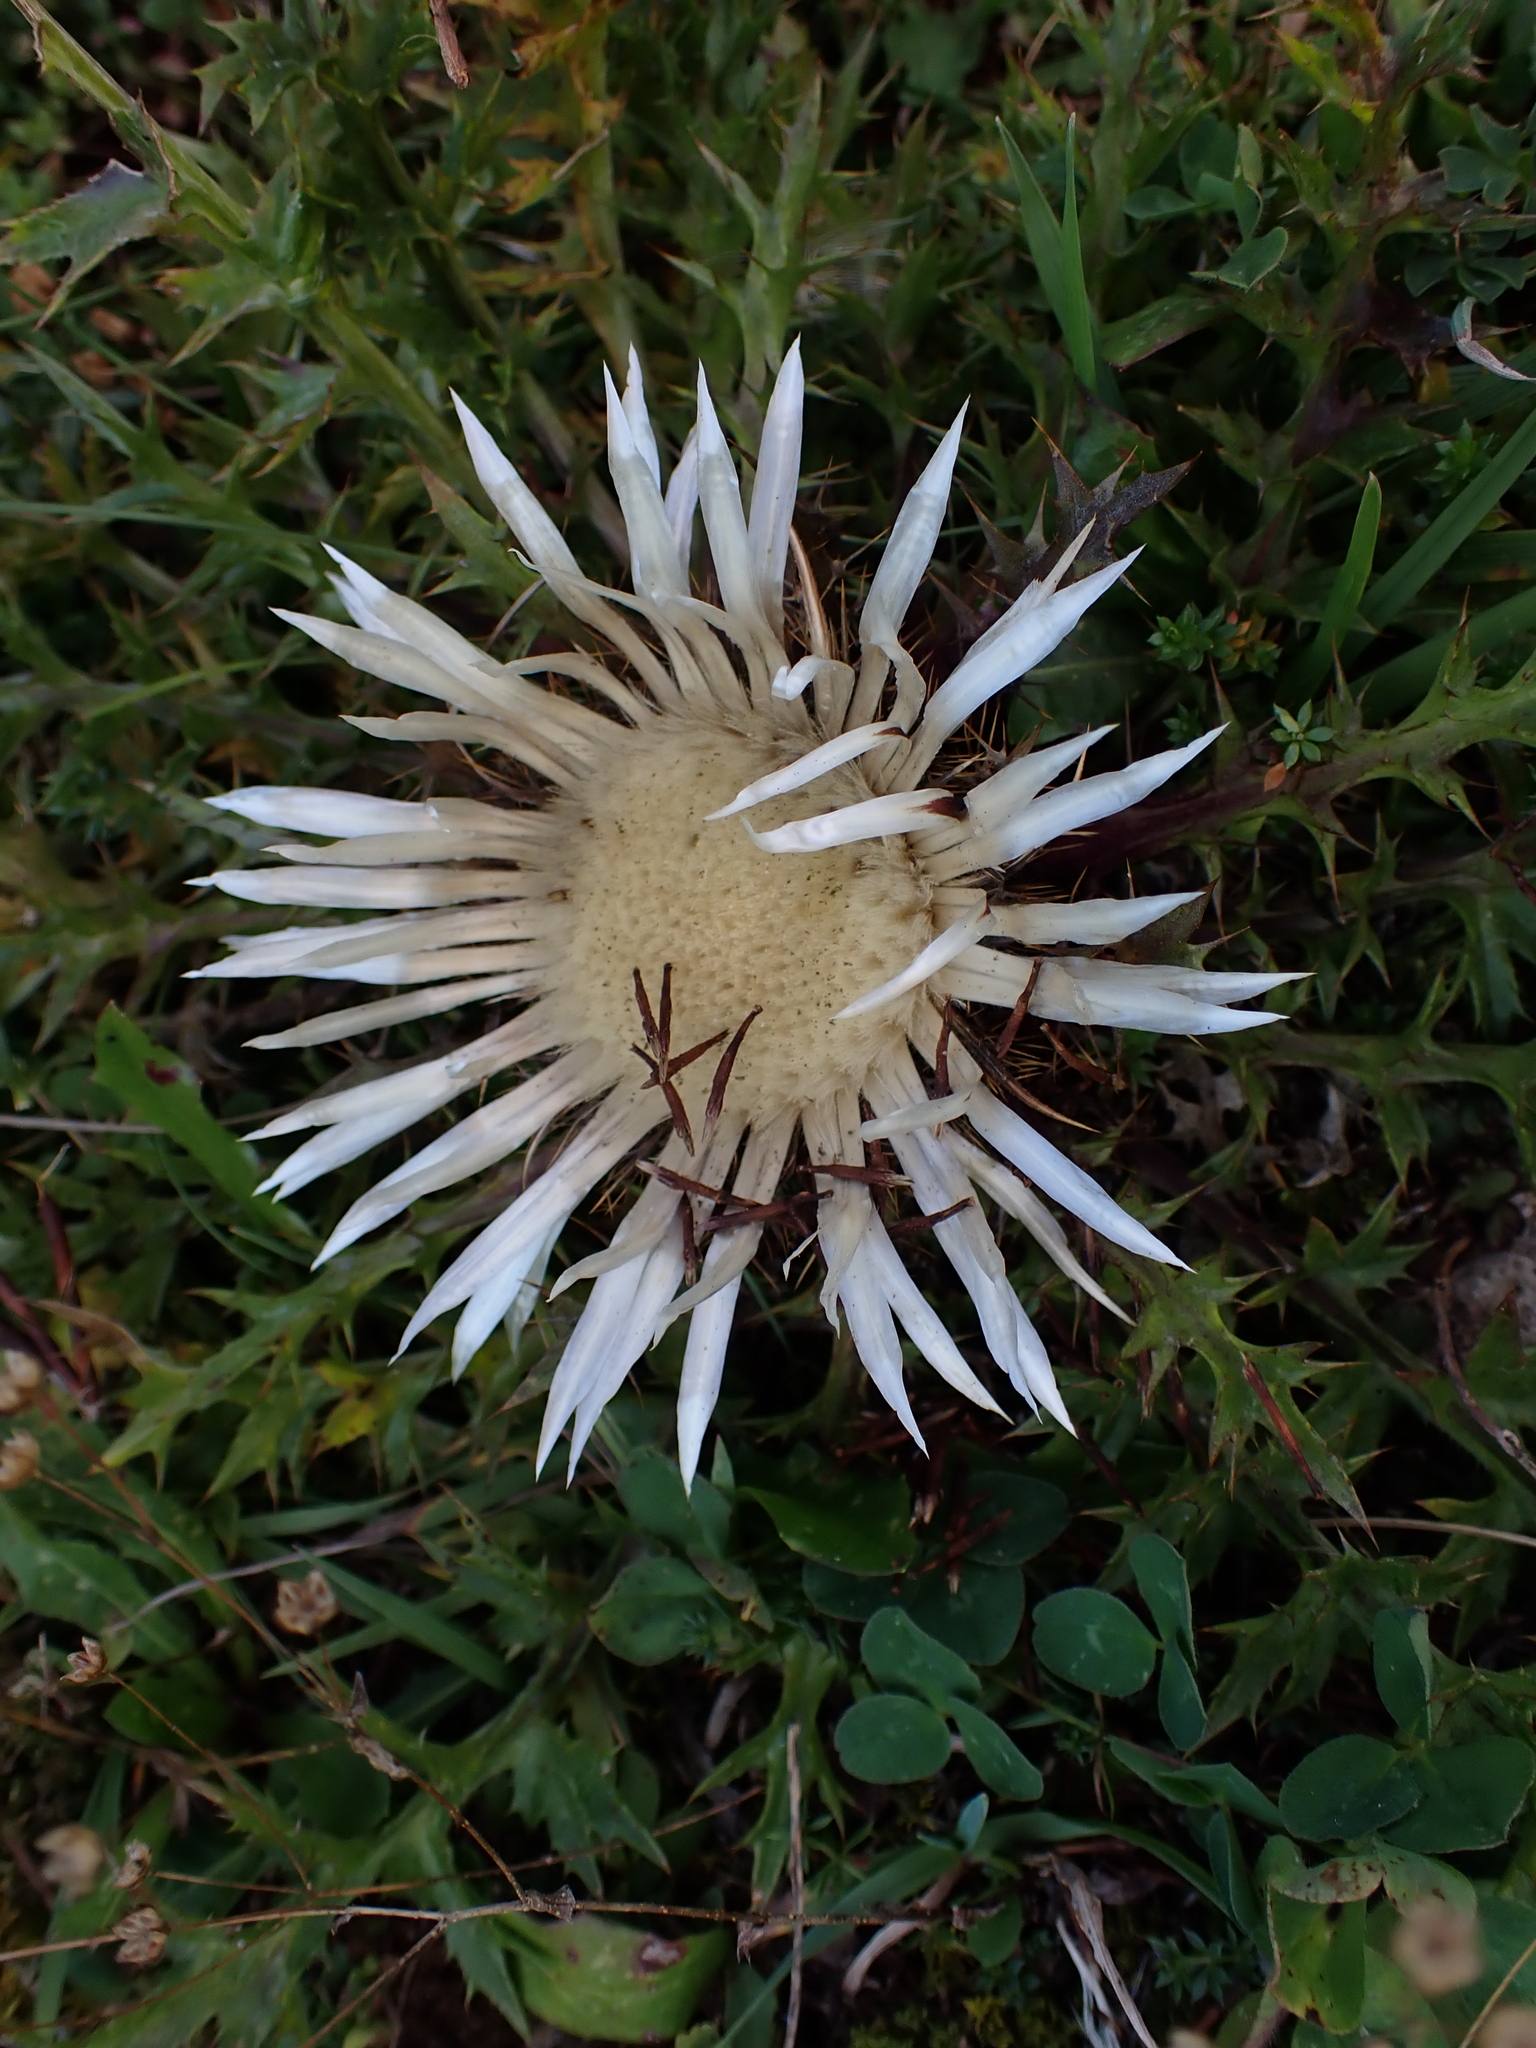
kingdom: Plantae
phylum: Tracheophyta
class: Magnoliopsida
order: Asterales
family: Asteraceae
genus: Carlina
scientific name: Carlina acaulis
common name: Stemless carline thistle
